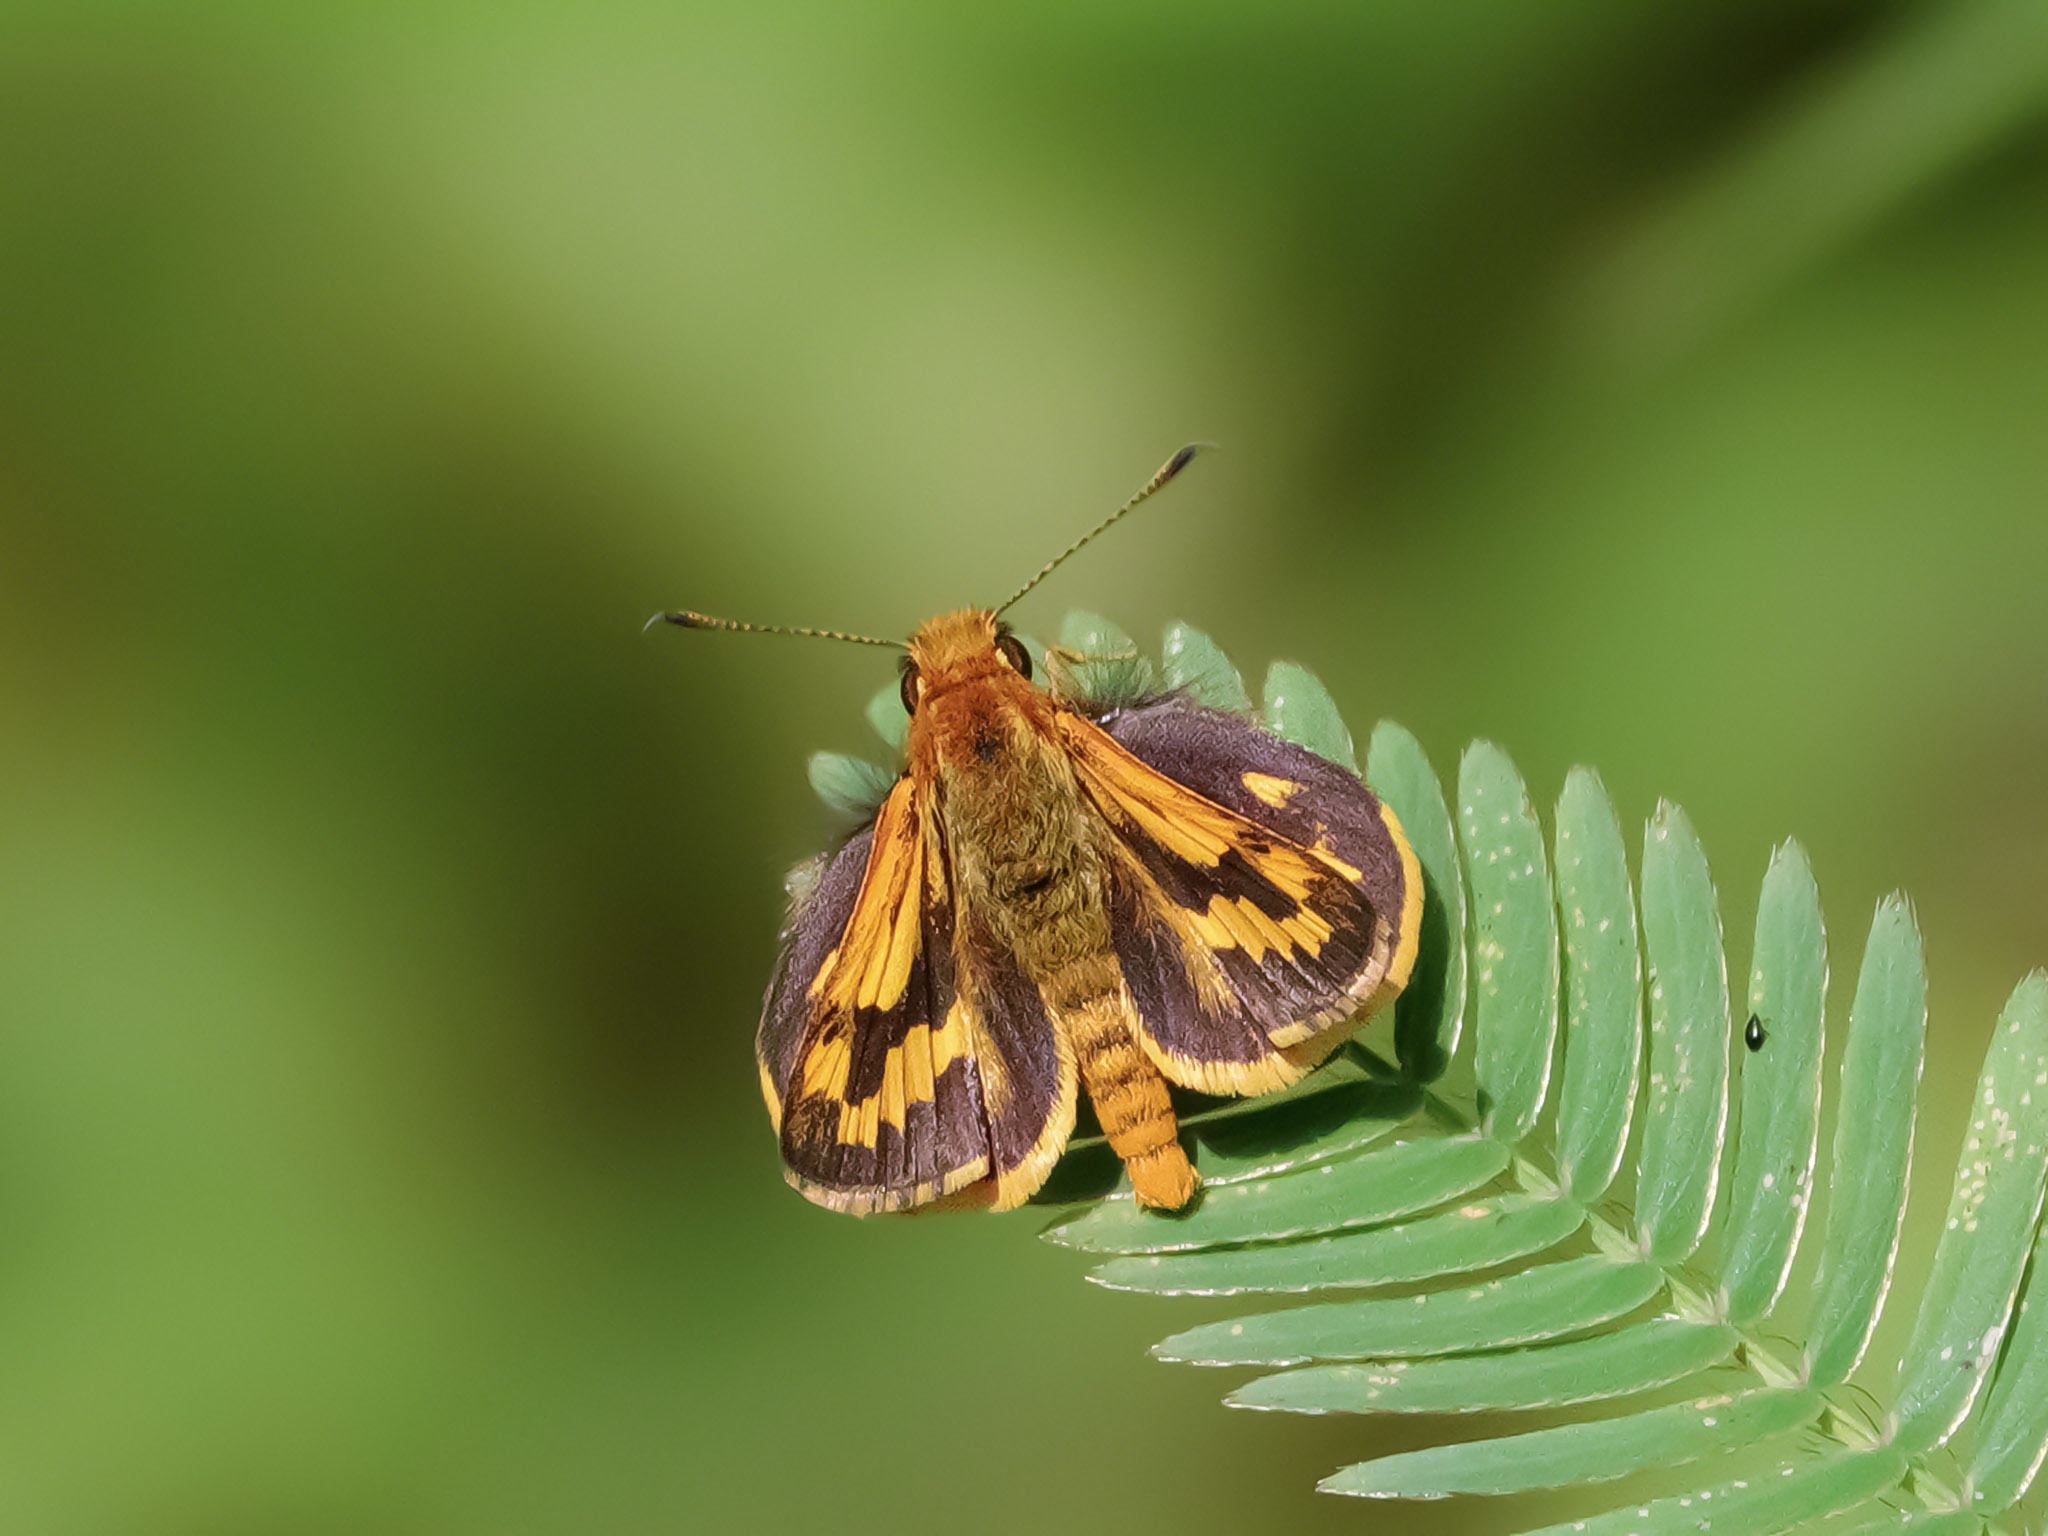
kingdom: Animalia
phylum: Arthropoda
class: Insecta
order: Lepidoptera
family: Hesperiidae
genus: Potanthus
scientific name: Potanthus omaha
